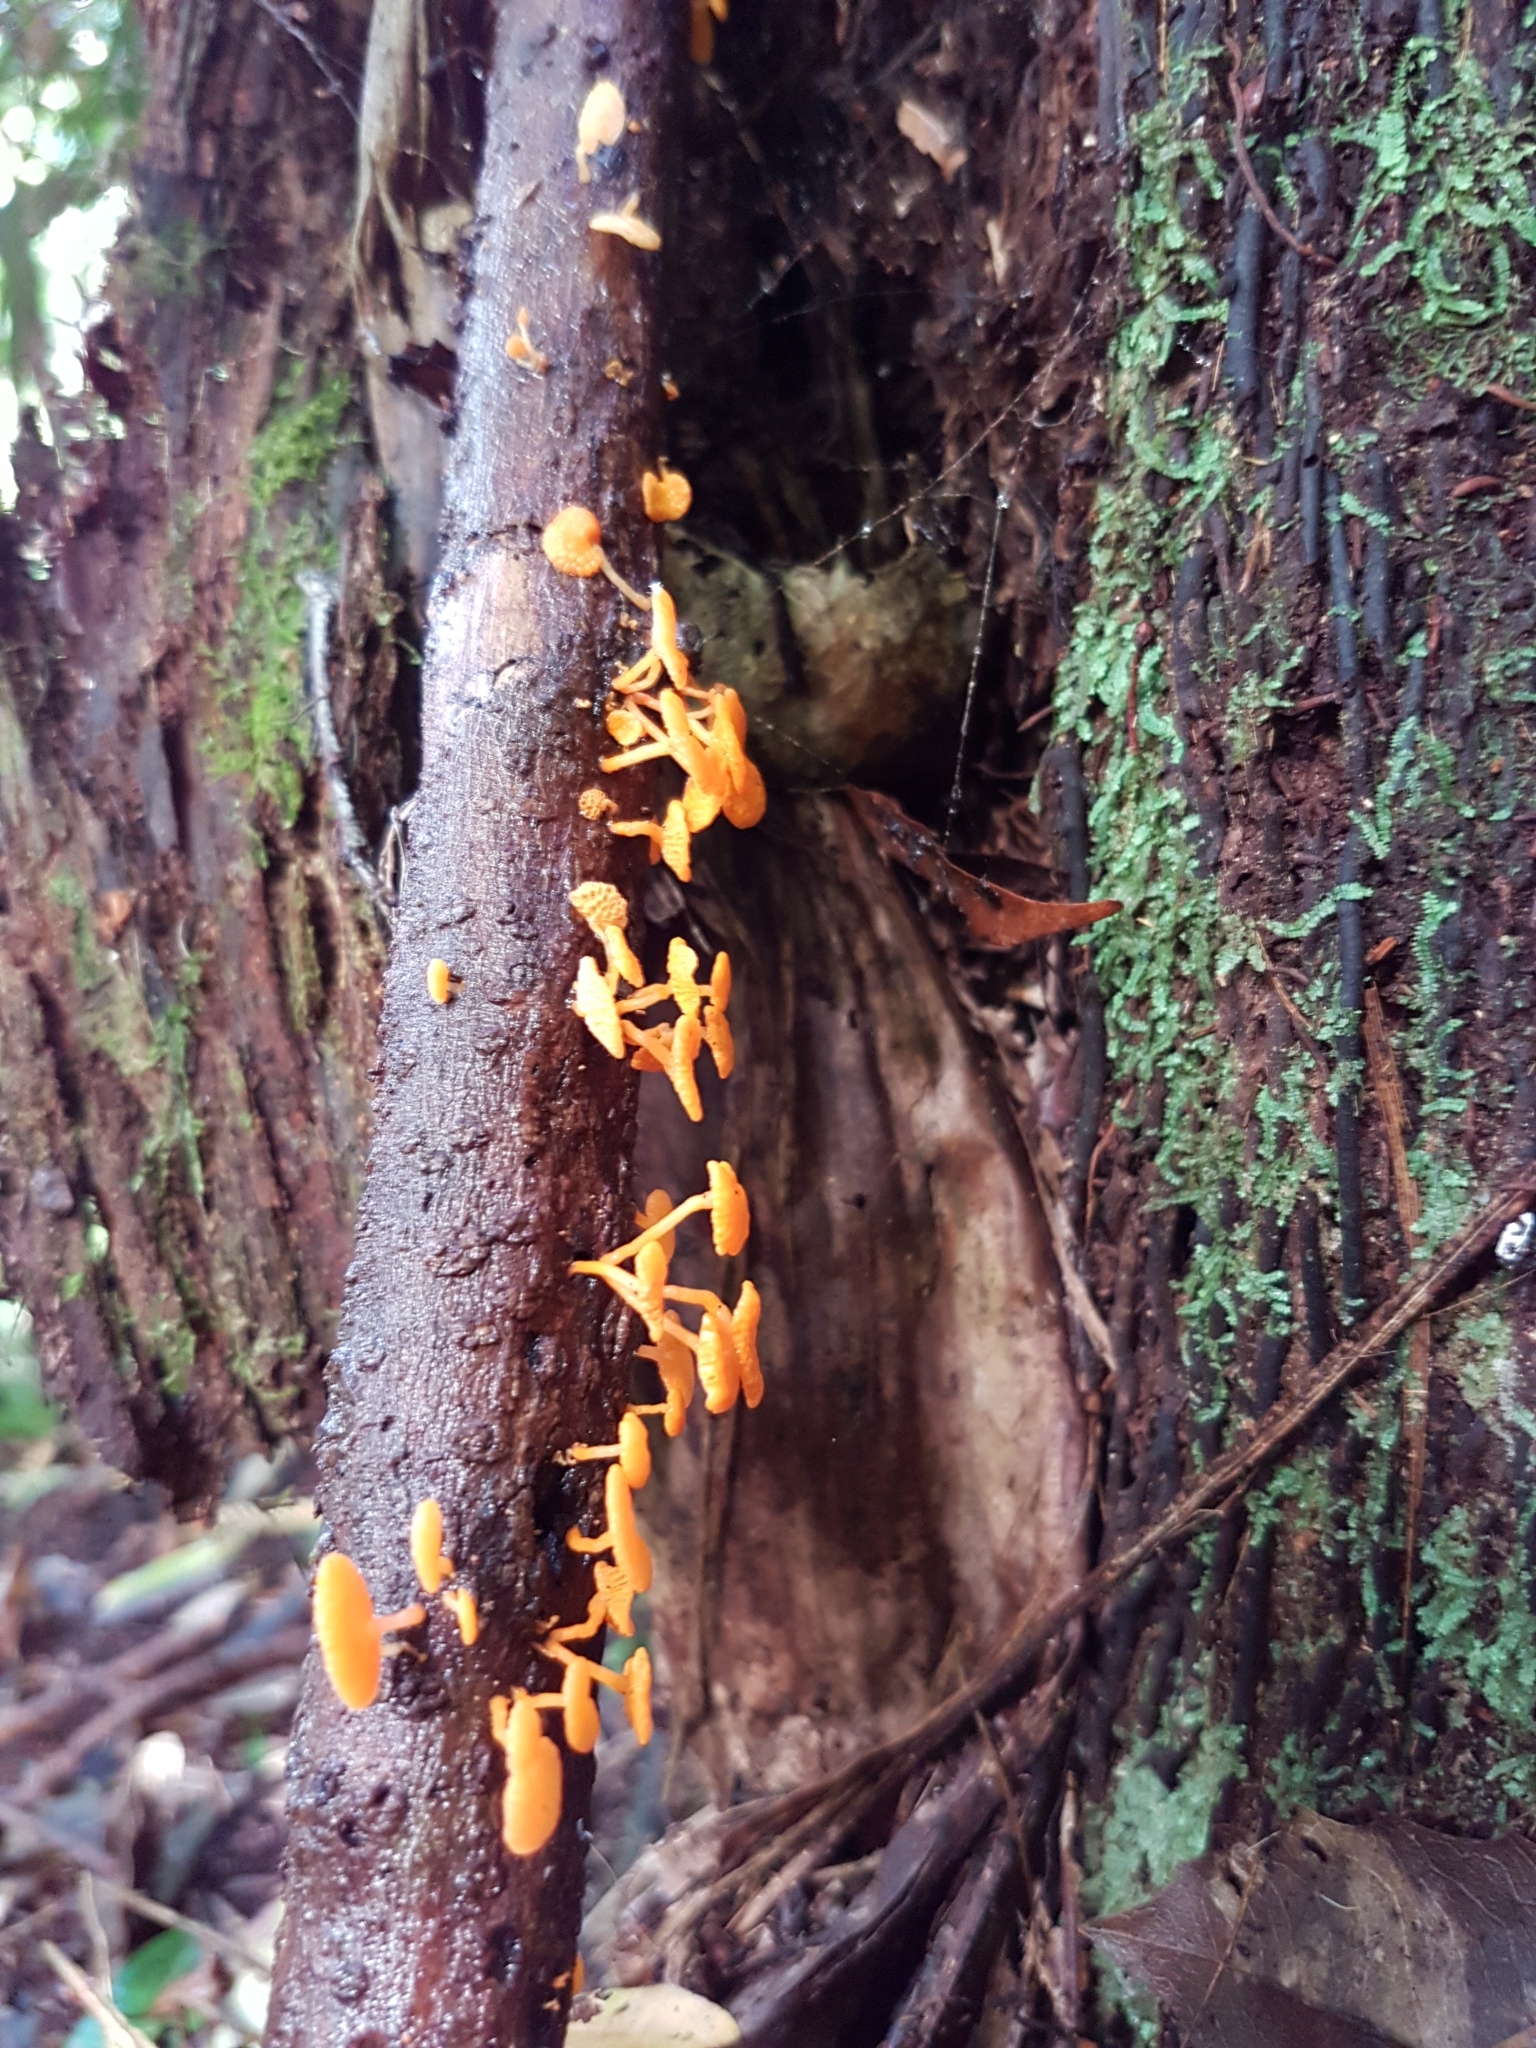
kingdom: Fungi
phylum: Basidiomycota
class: Agaricomycetes
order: Agaricales
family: Mycenaceae
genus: Favolaschia
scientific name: Favolaschia claudopus
